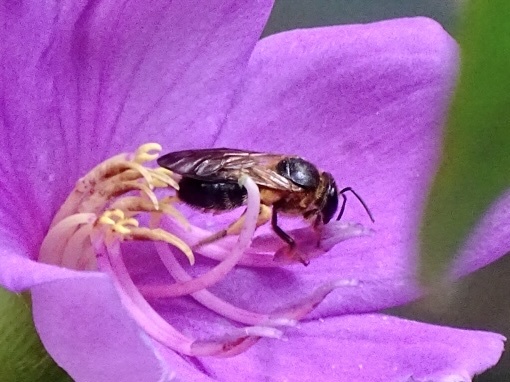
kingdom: Animalia
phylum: Arthropoda
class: Insecta
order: Hymenoptera
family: Halictidae
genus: Lipotriches
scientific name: Lipotriches saussurei
